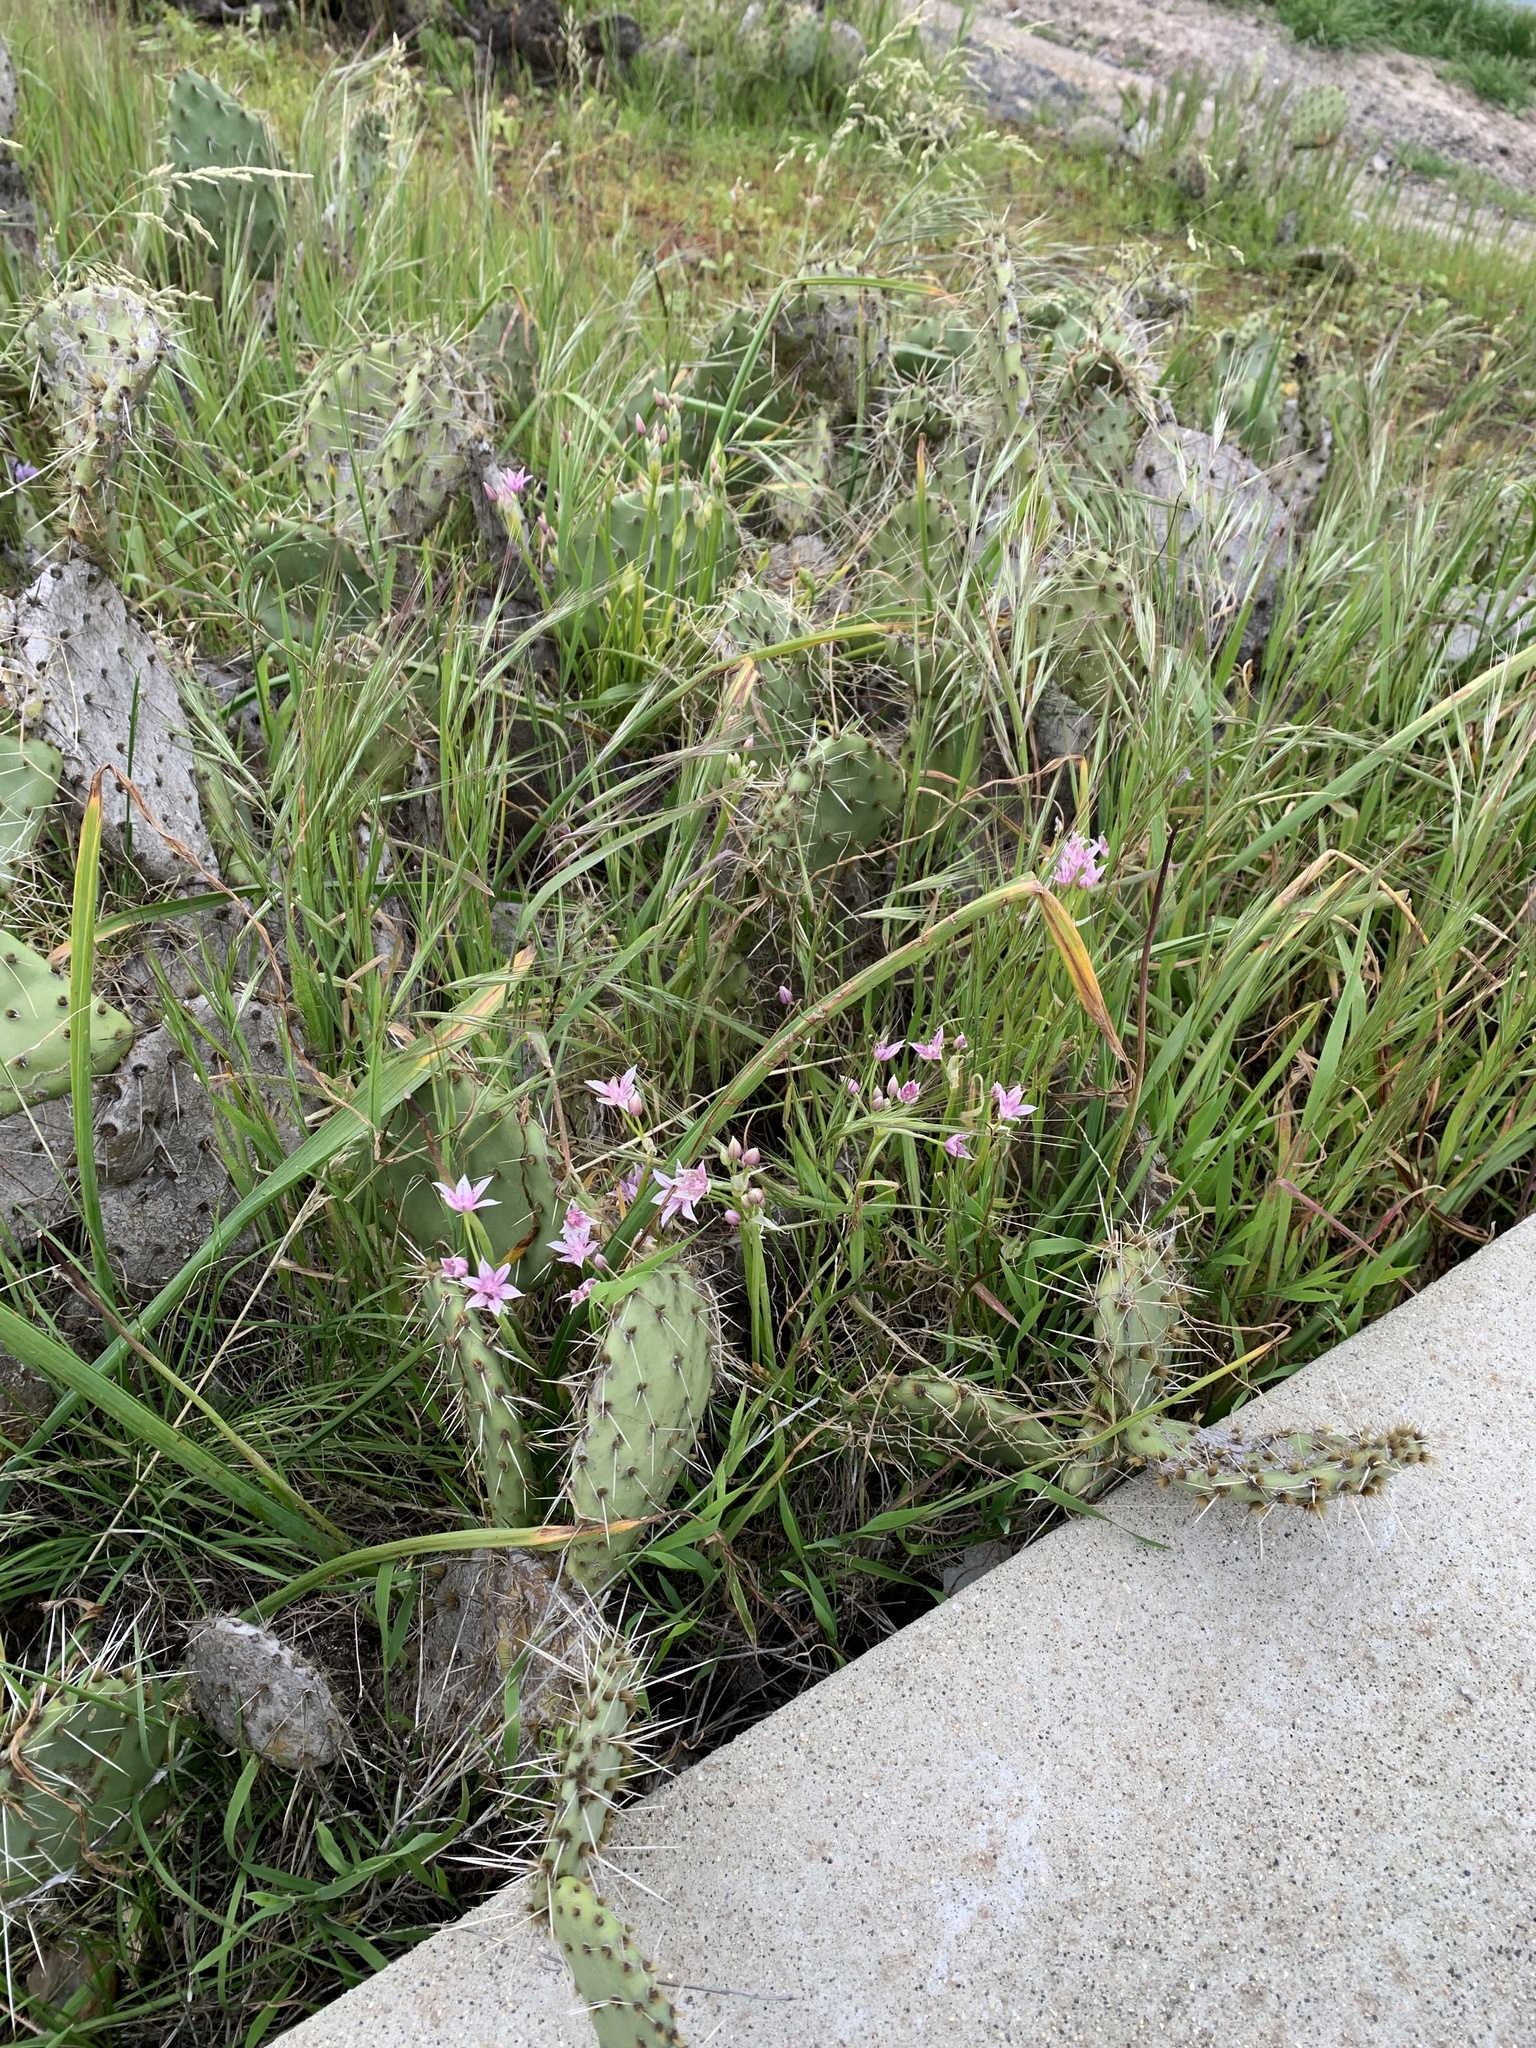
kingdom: Plantae
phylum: Tracheophyta
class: Liliopsida
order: Asparagales
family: Amaryllidaceae
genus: Allium
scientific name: Allium praecox
